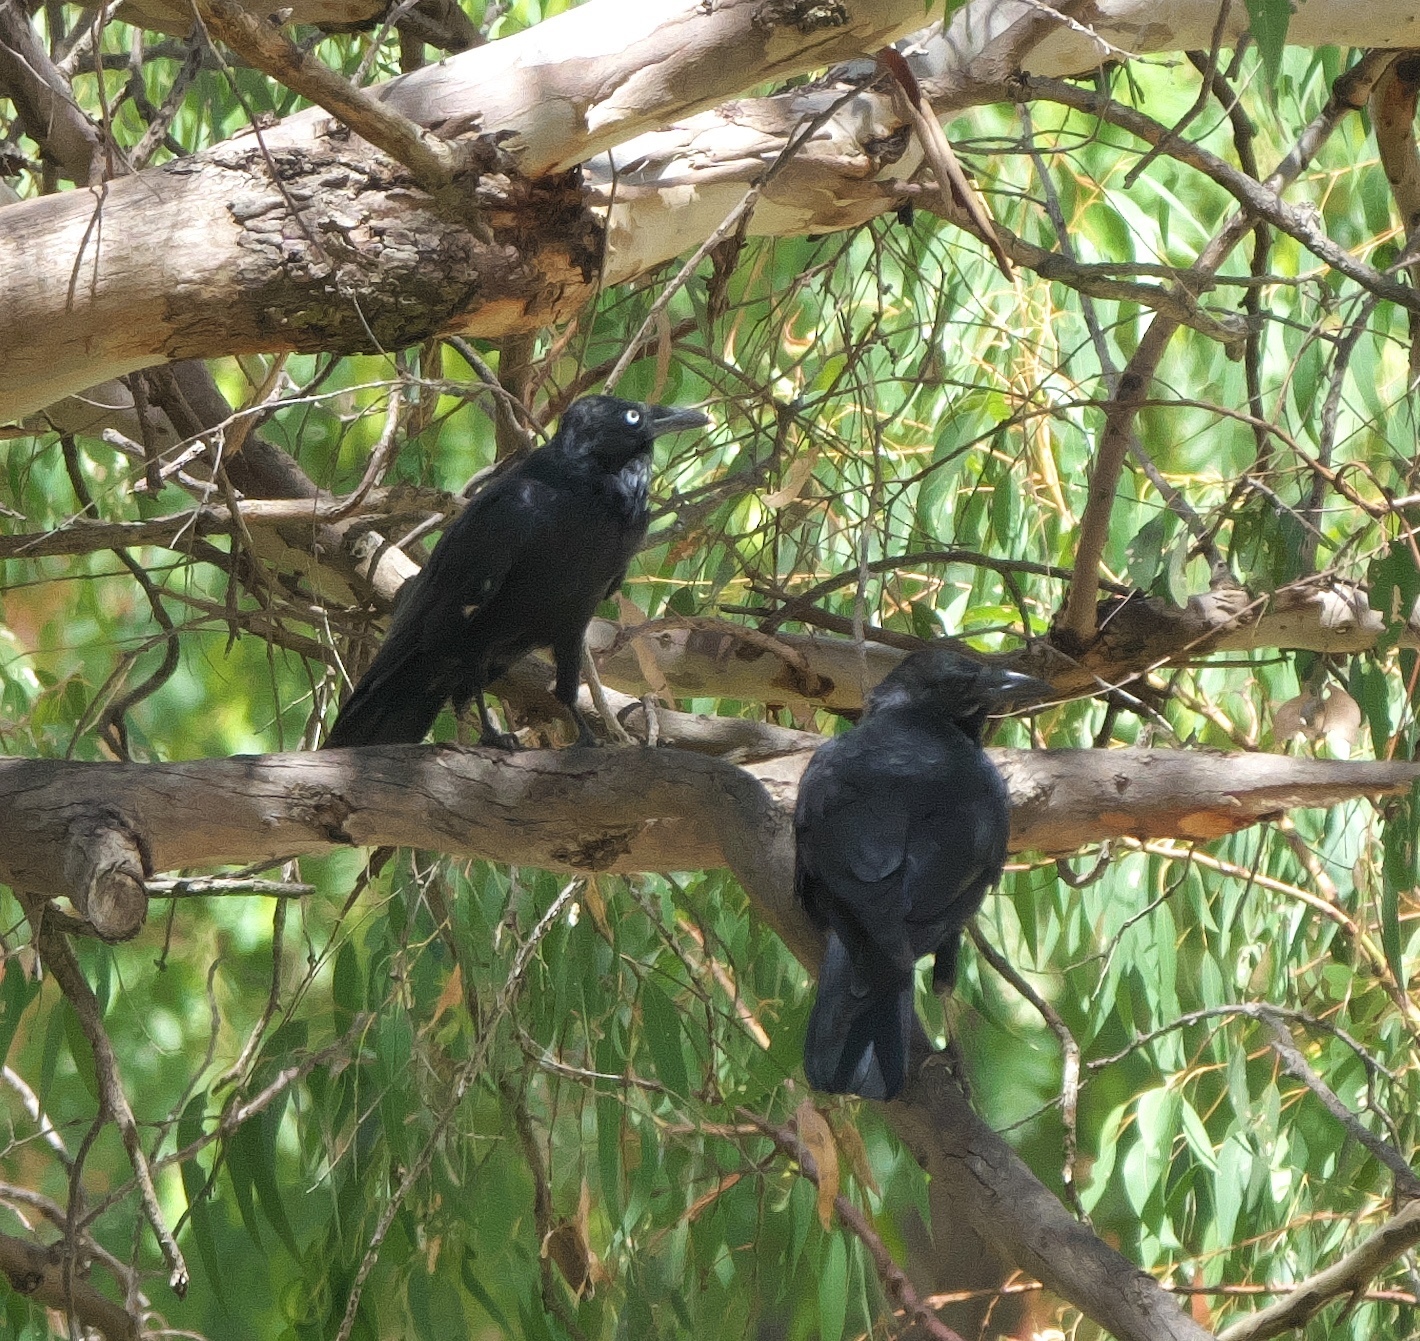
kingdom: Animalia
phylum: Chordata
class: Aves
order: Passeriformes
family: Corvidae
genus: Corvus
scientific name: Corvus coronoides
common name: Australian raven
